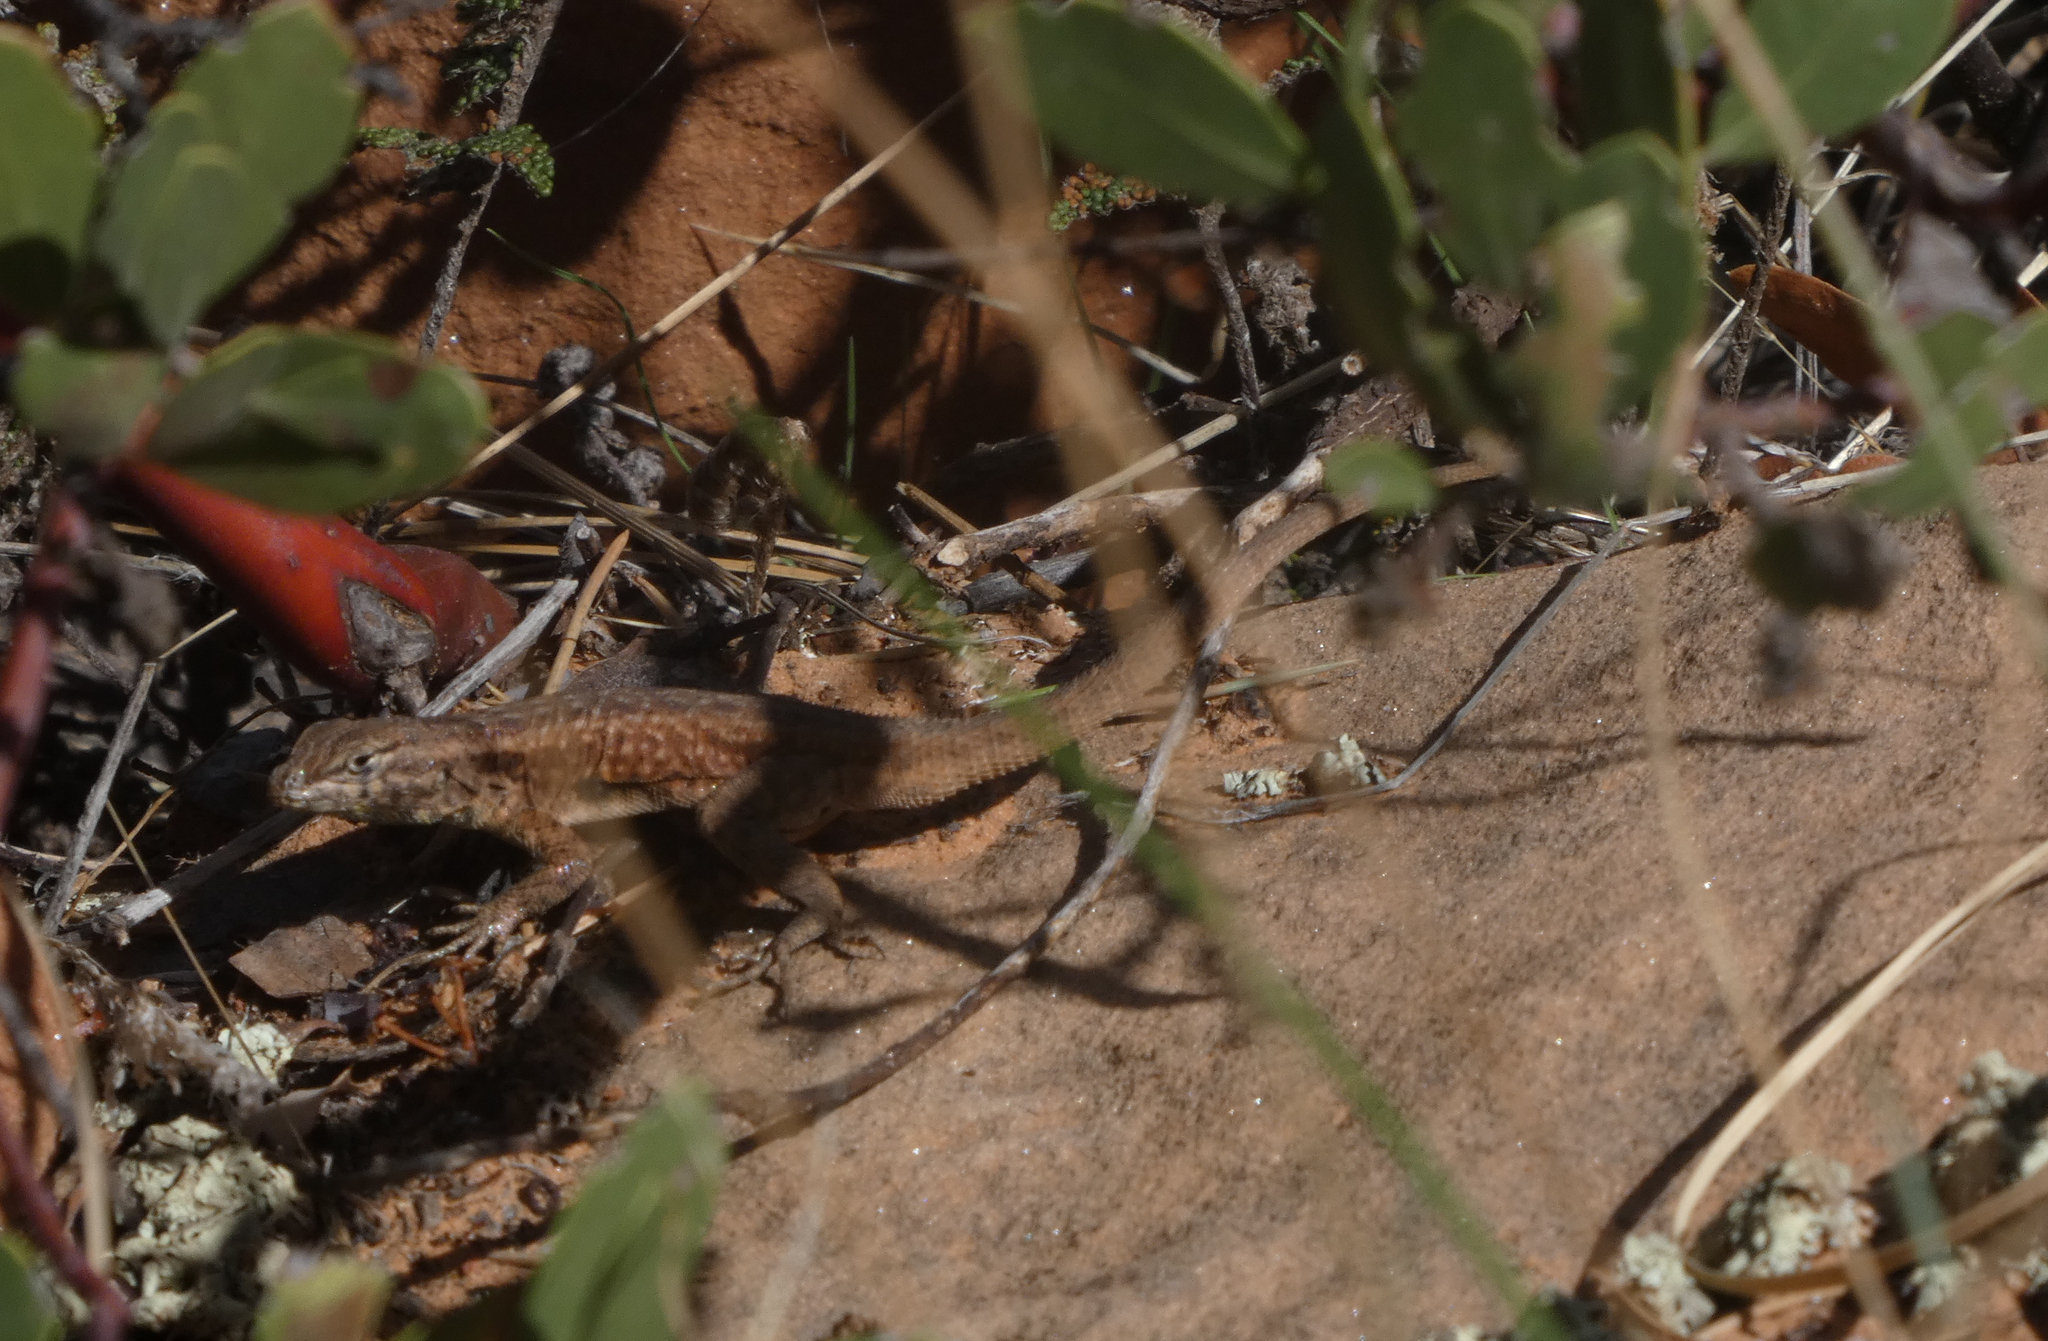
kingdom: Animalia
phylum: Chordata
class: Squamata
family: Phrynosomatidae
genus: Uta
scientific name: Uta stansburiana
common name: Side-blotched lizard
